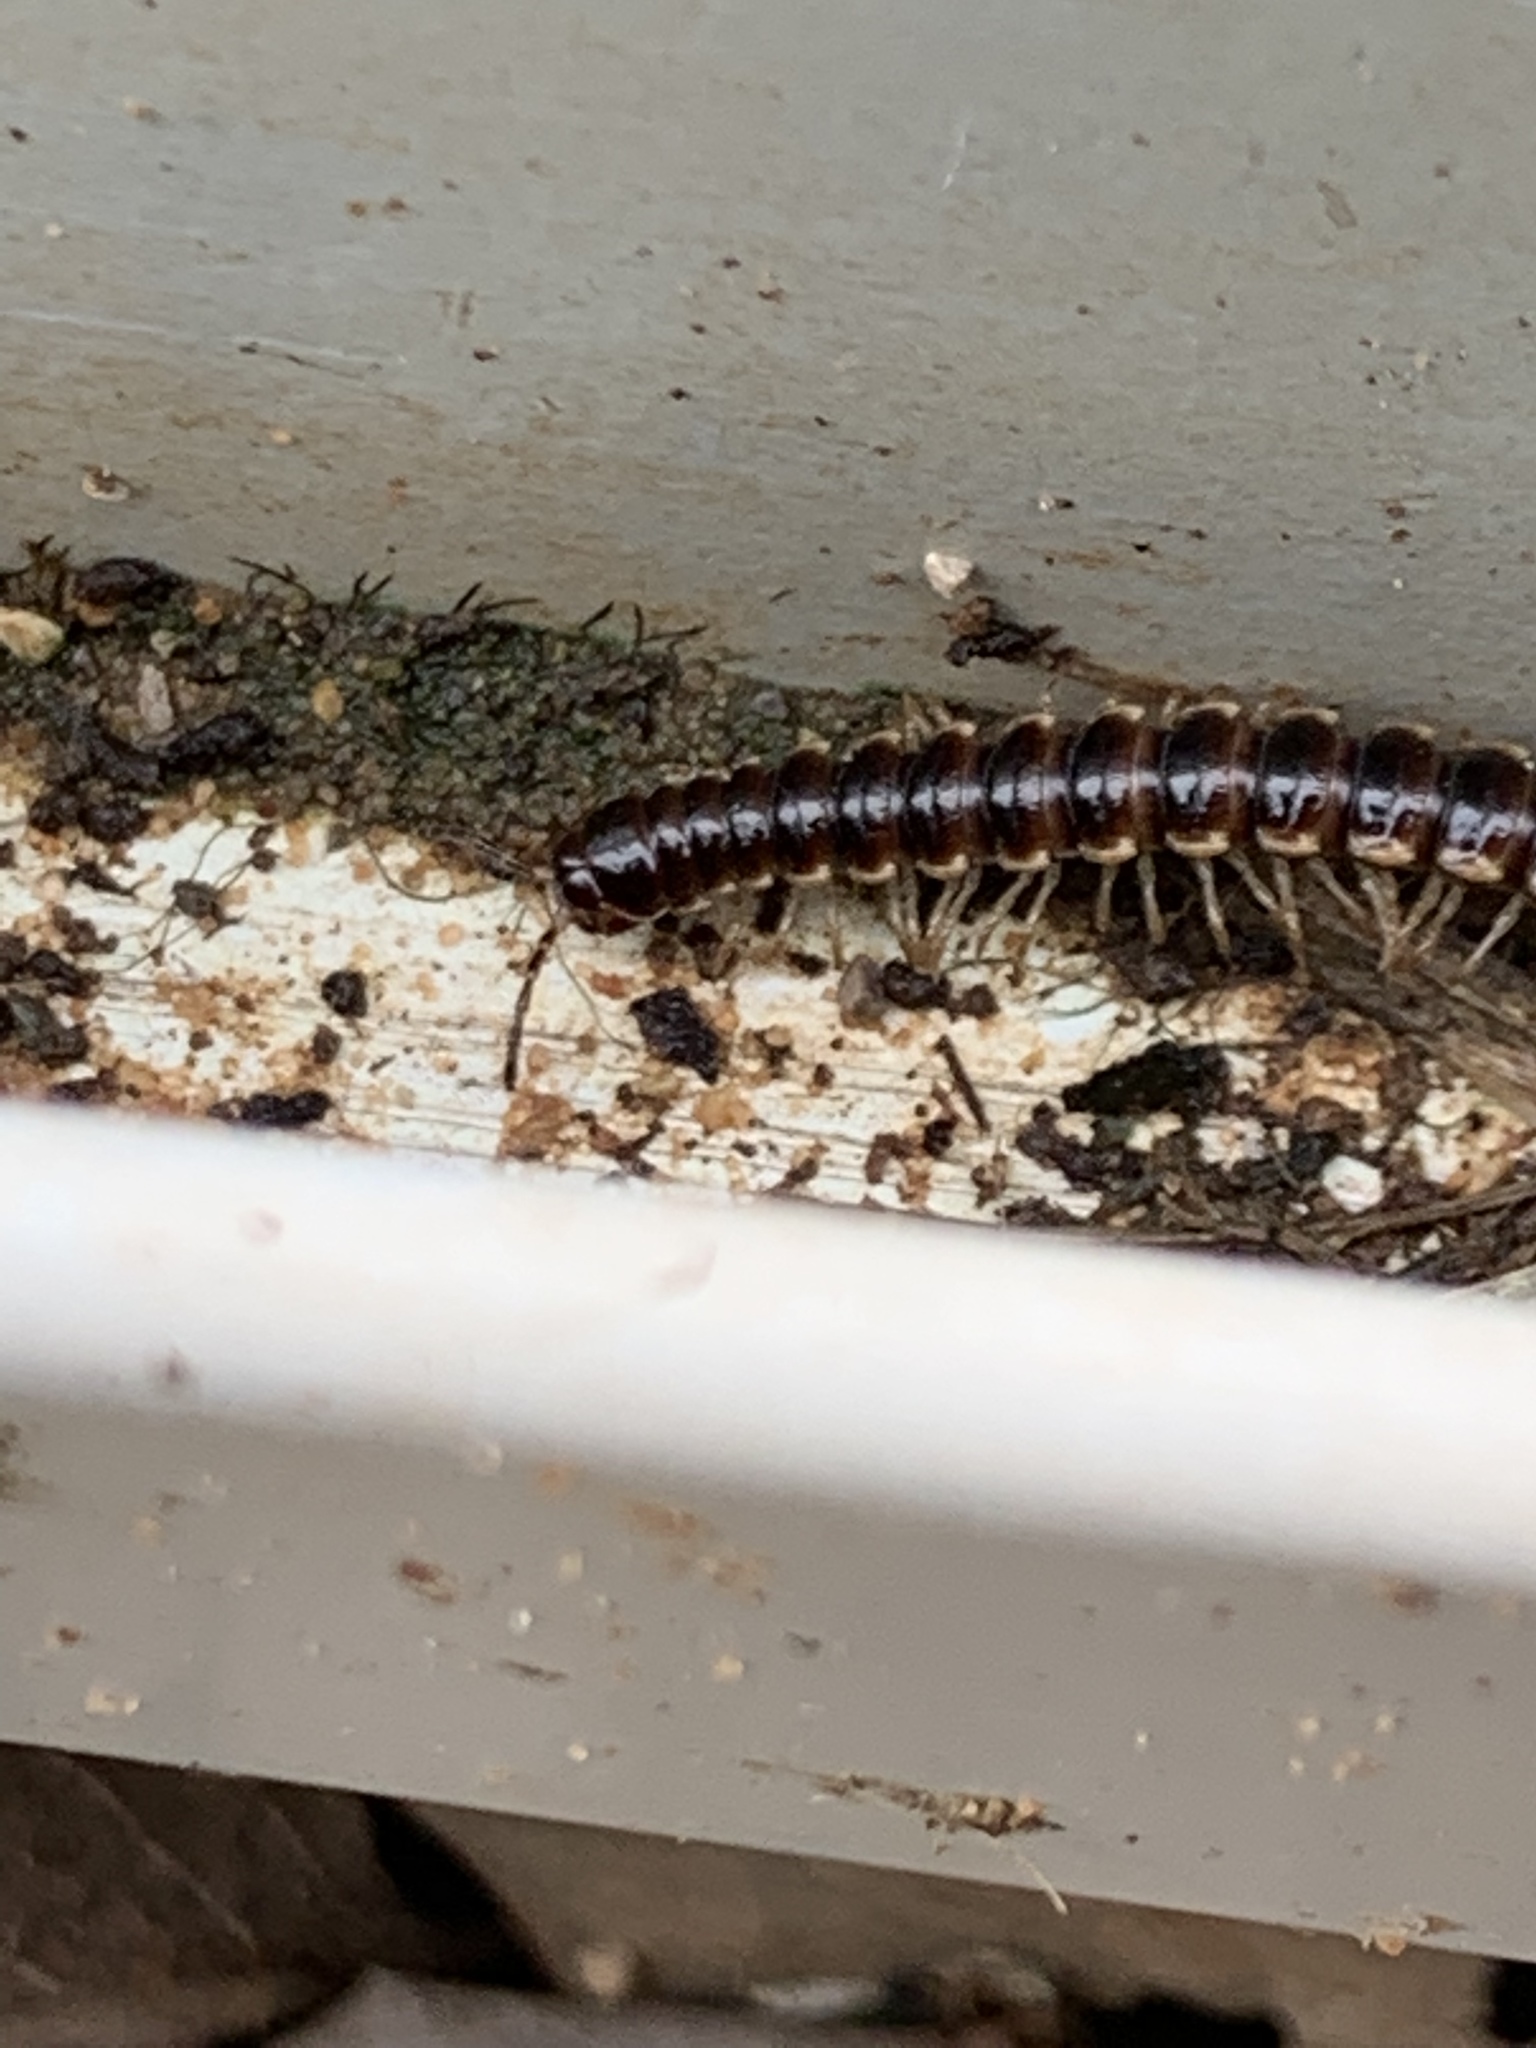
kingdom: Animalia
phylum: Arthropoda
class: Diplopoda
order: Polydesmida
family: Paradoxosomatidae
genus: Oxidus
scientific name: Oxidus gracilis
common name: Greenhouse millipede
